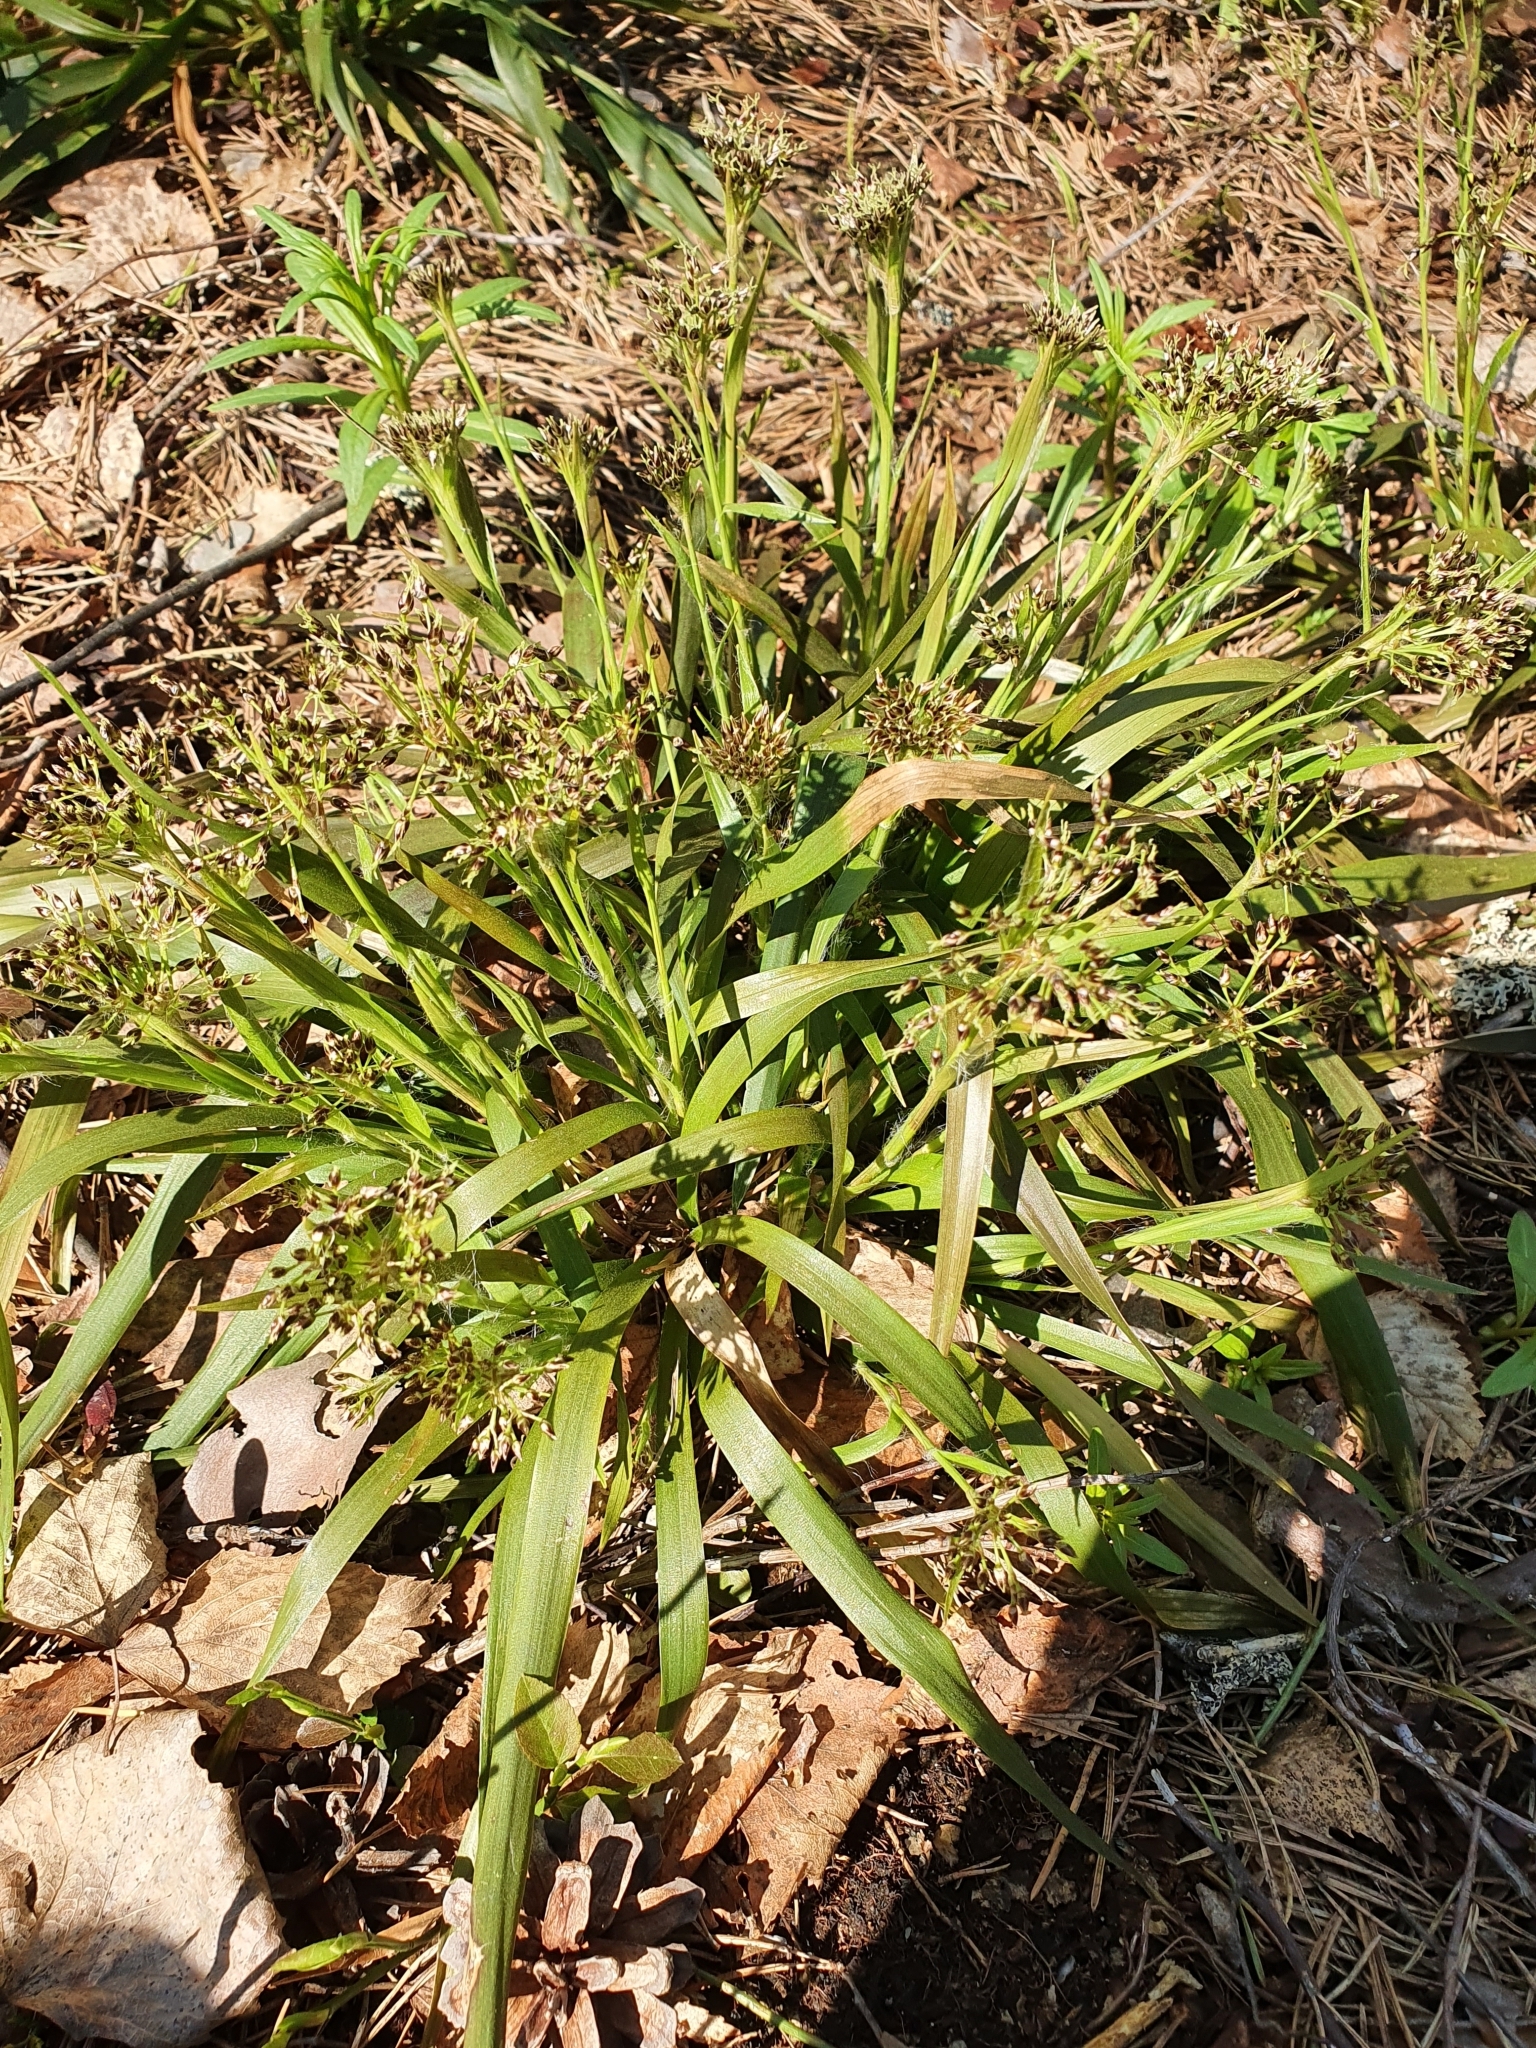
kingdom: Plantae
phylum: Tracheophyta
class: Liliopsida
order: Poales
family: Juncaceae
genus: Luzula
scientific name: Luzula pilosa
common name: Hairy wood-rush
